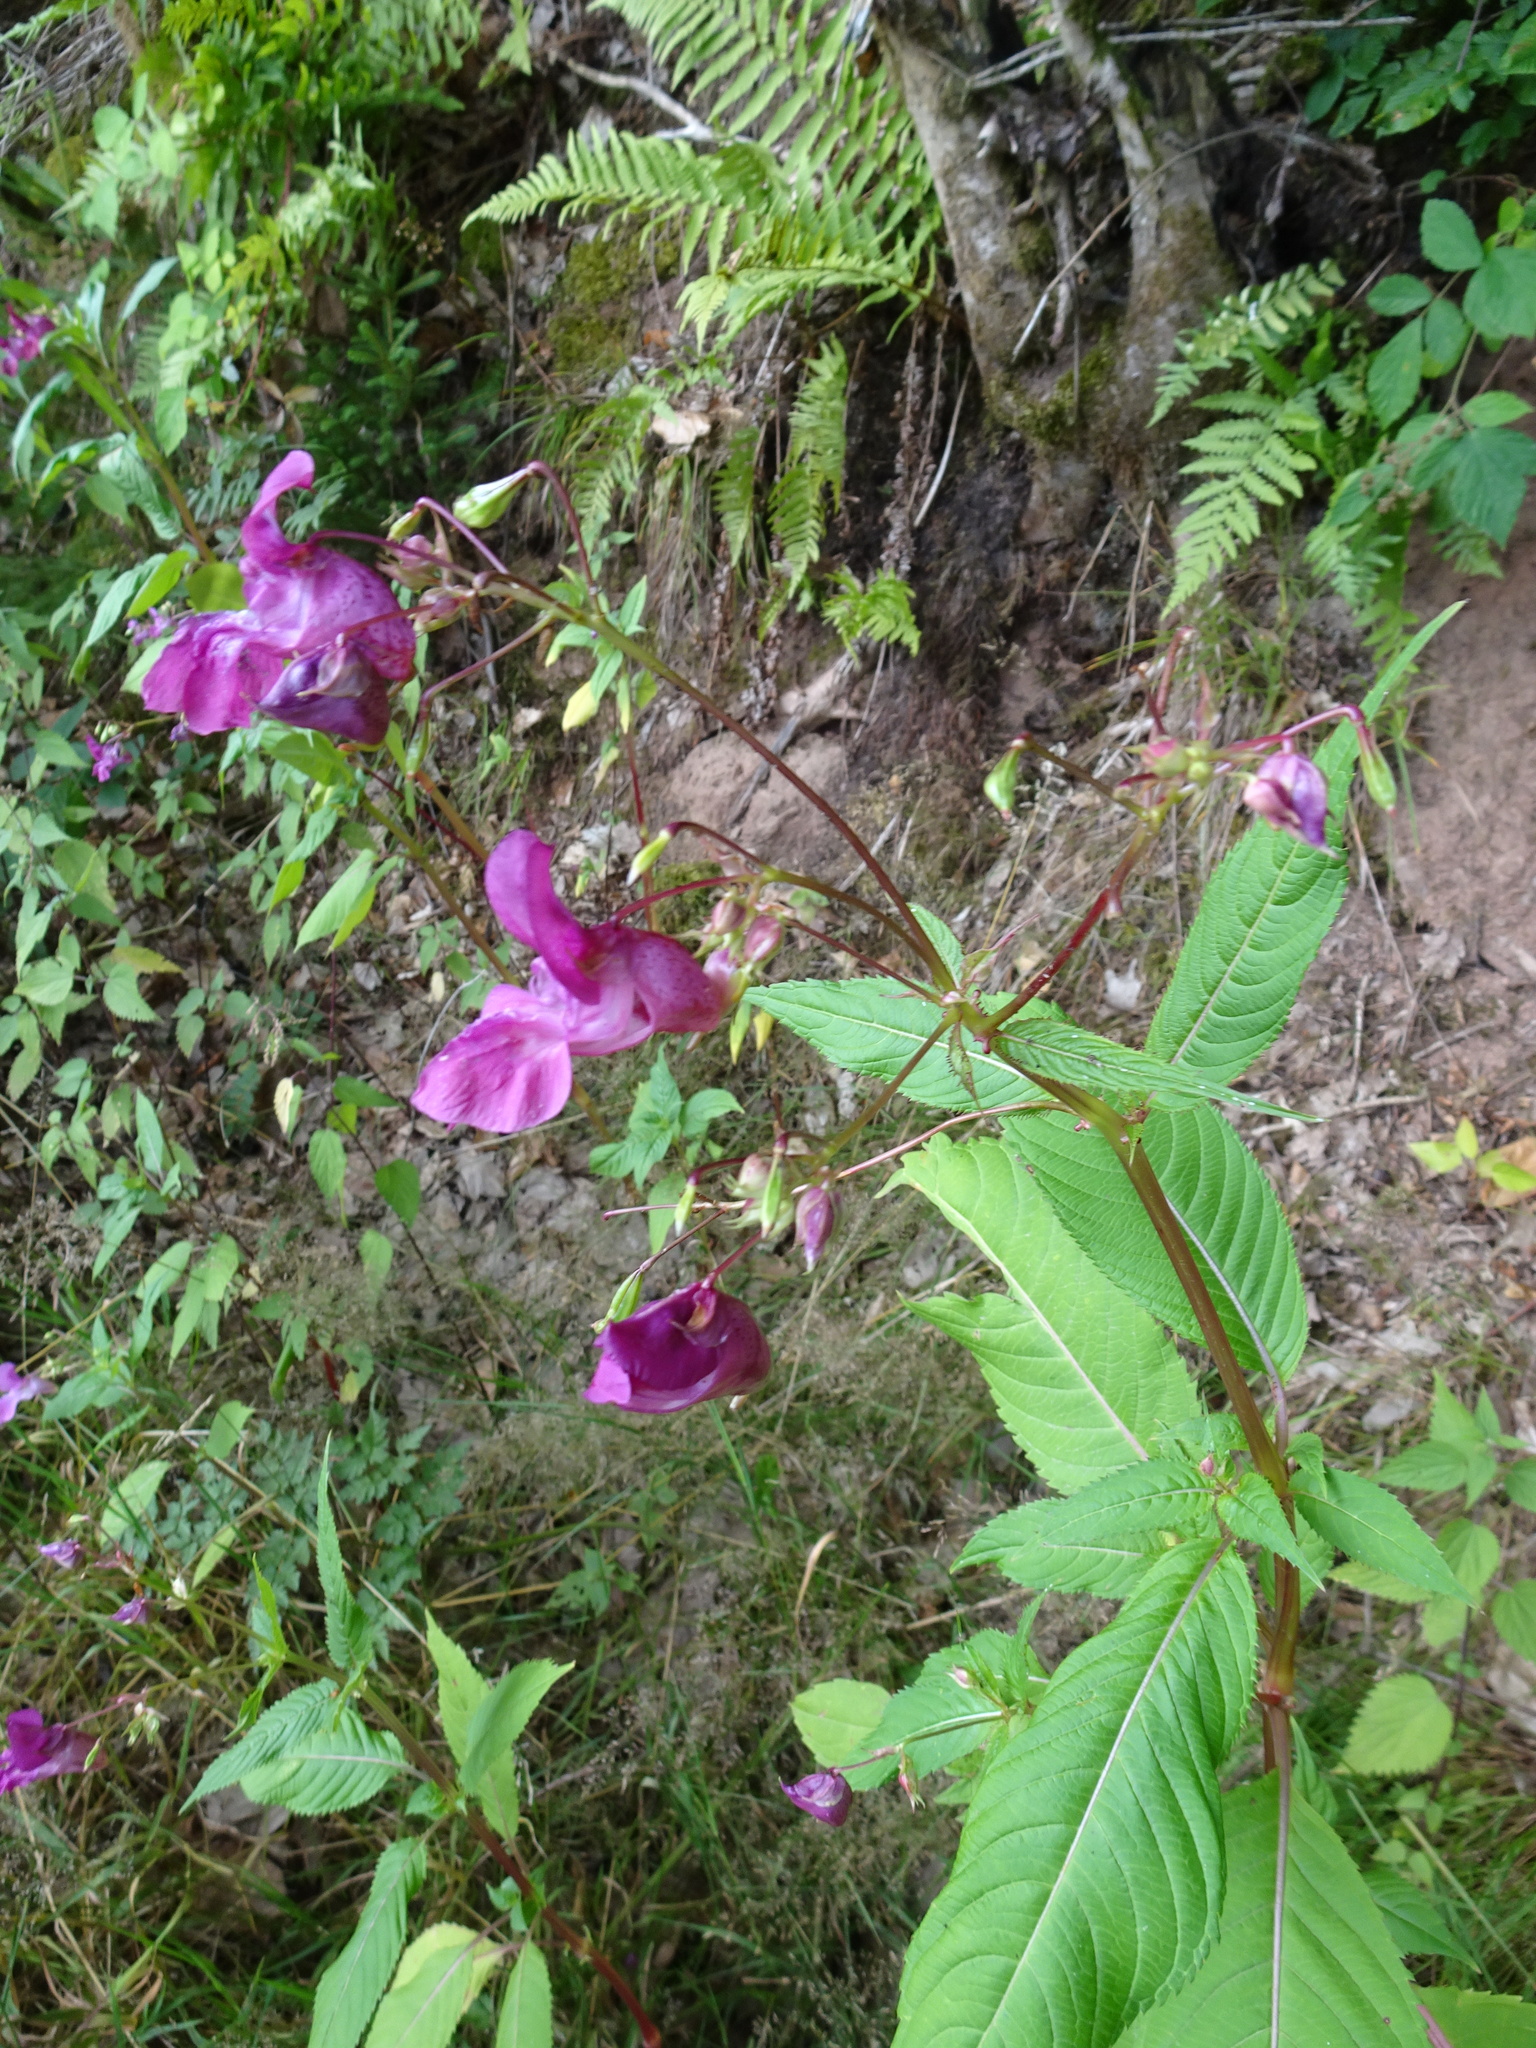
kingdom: Plantae
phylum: Tracheophyta
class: Magnoliopsida
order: Ericales
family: Balsaminaceae
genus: Impatiens
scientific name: Impatiens glandulifera
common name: Himalayan balsam
